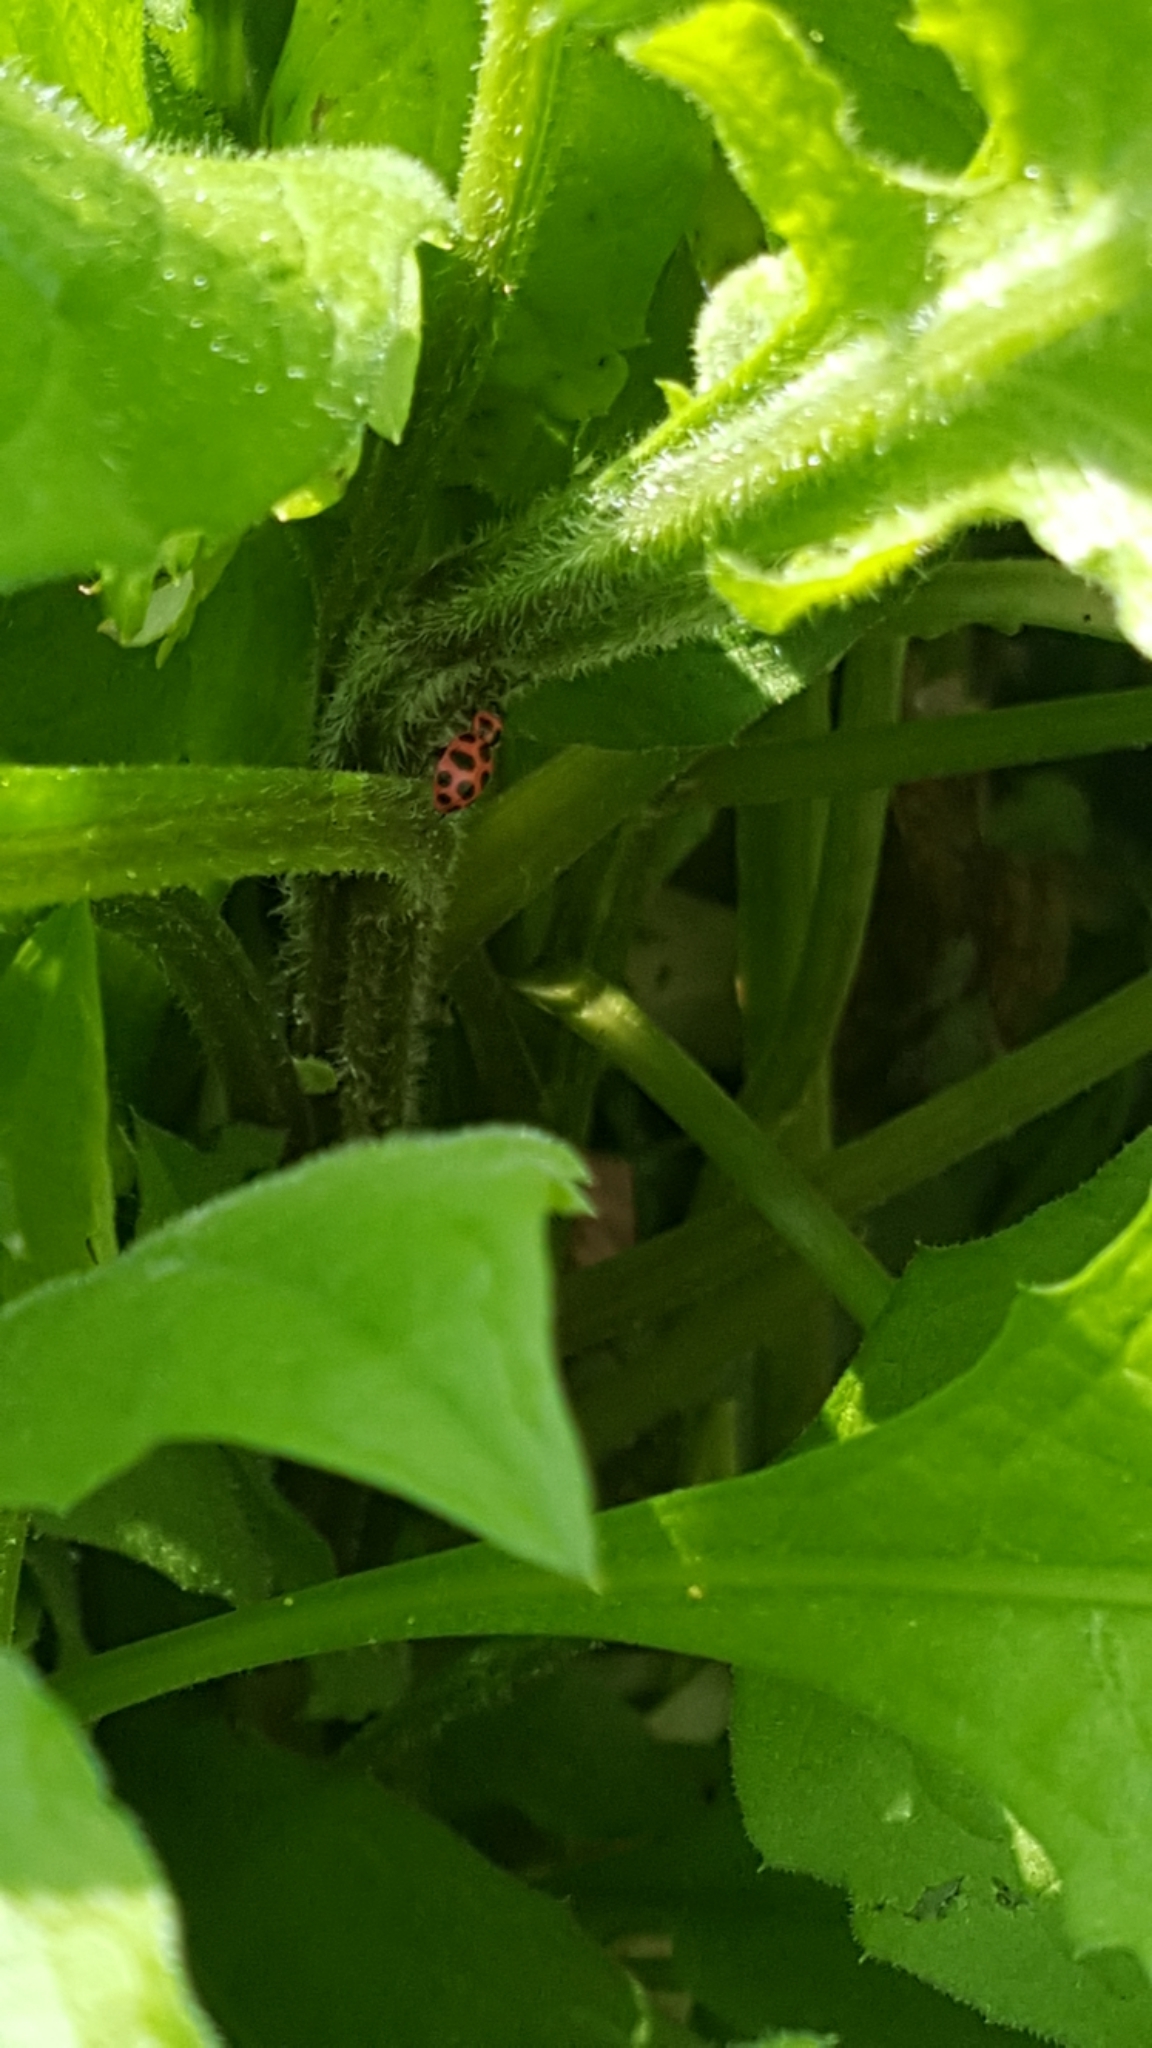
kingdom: Animalia
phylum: Arthropoda
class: Insecta
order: Coleoptera
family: Coccinellidae
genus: Coleomegilla
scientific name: Coleomegilla maculata
